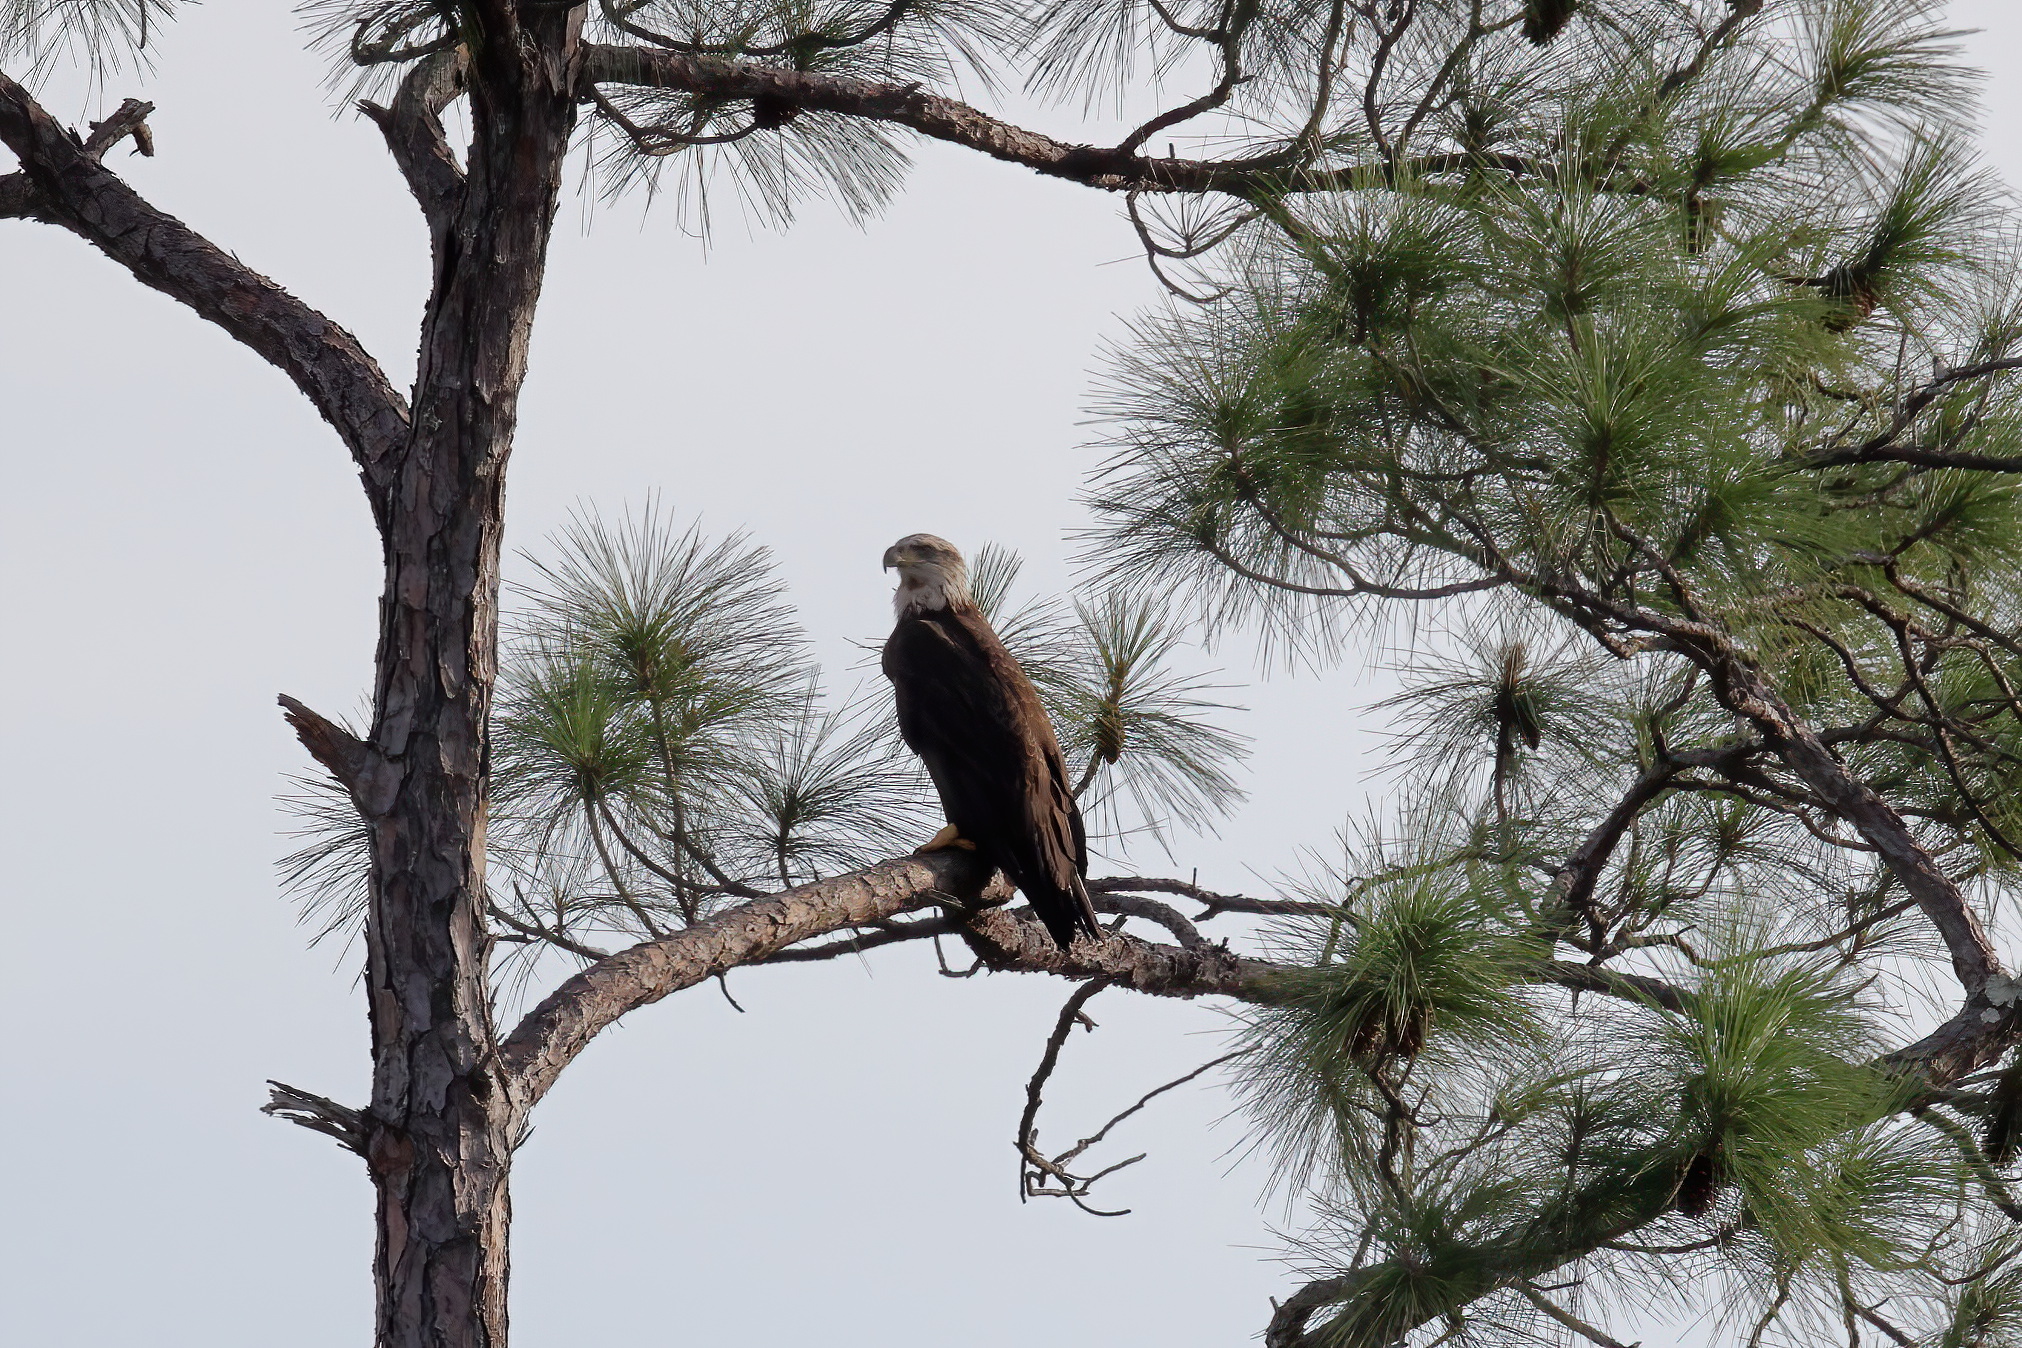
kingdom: Animalia
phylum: Chordata
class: Aves
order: Accipitriformes
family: Accipitridae
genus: Haliaeetus
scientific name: Haliaeetus leucocephalus
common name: Bald eagle
